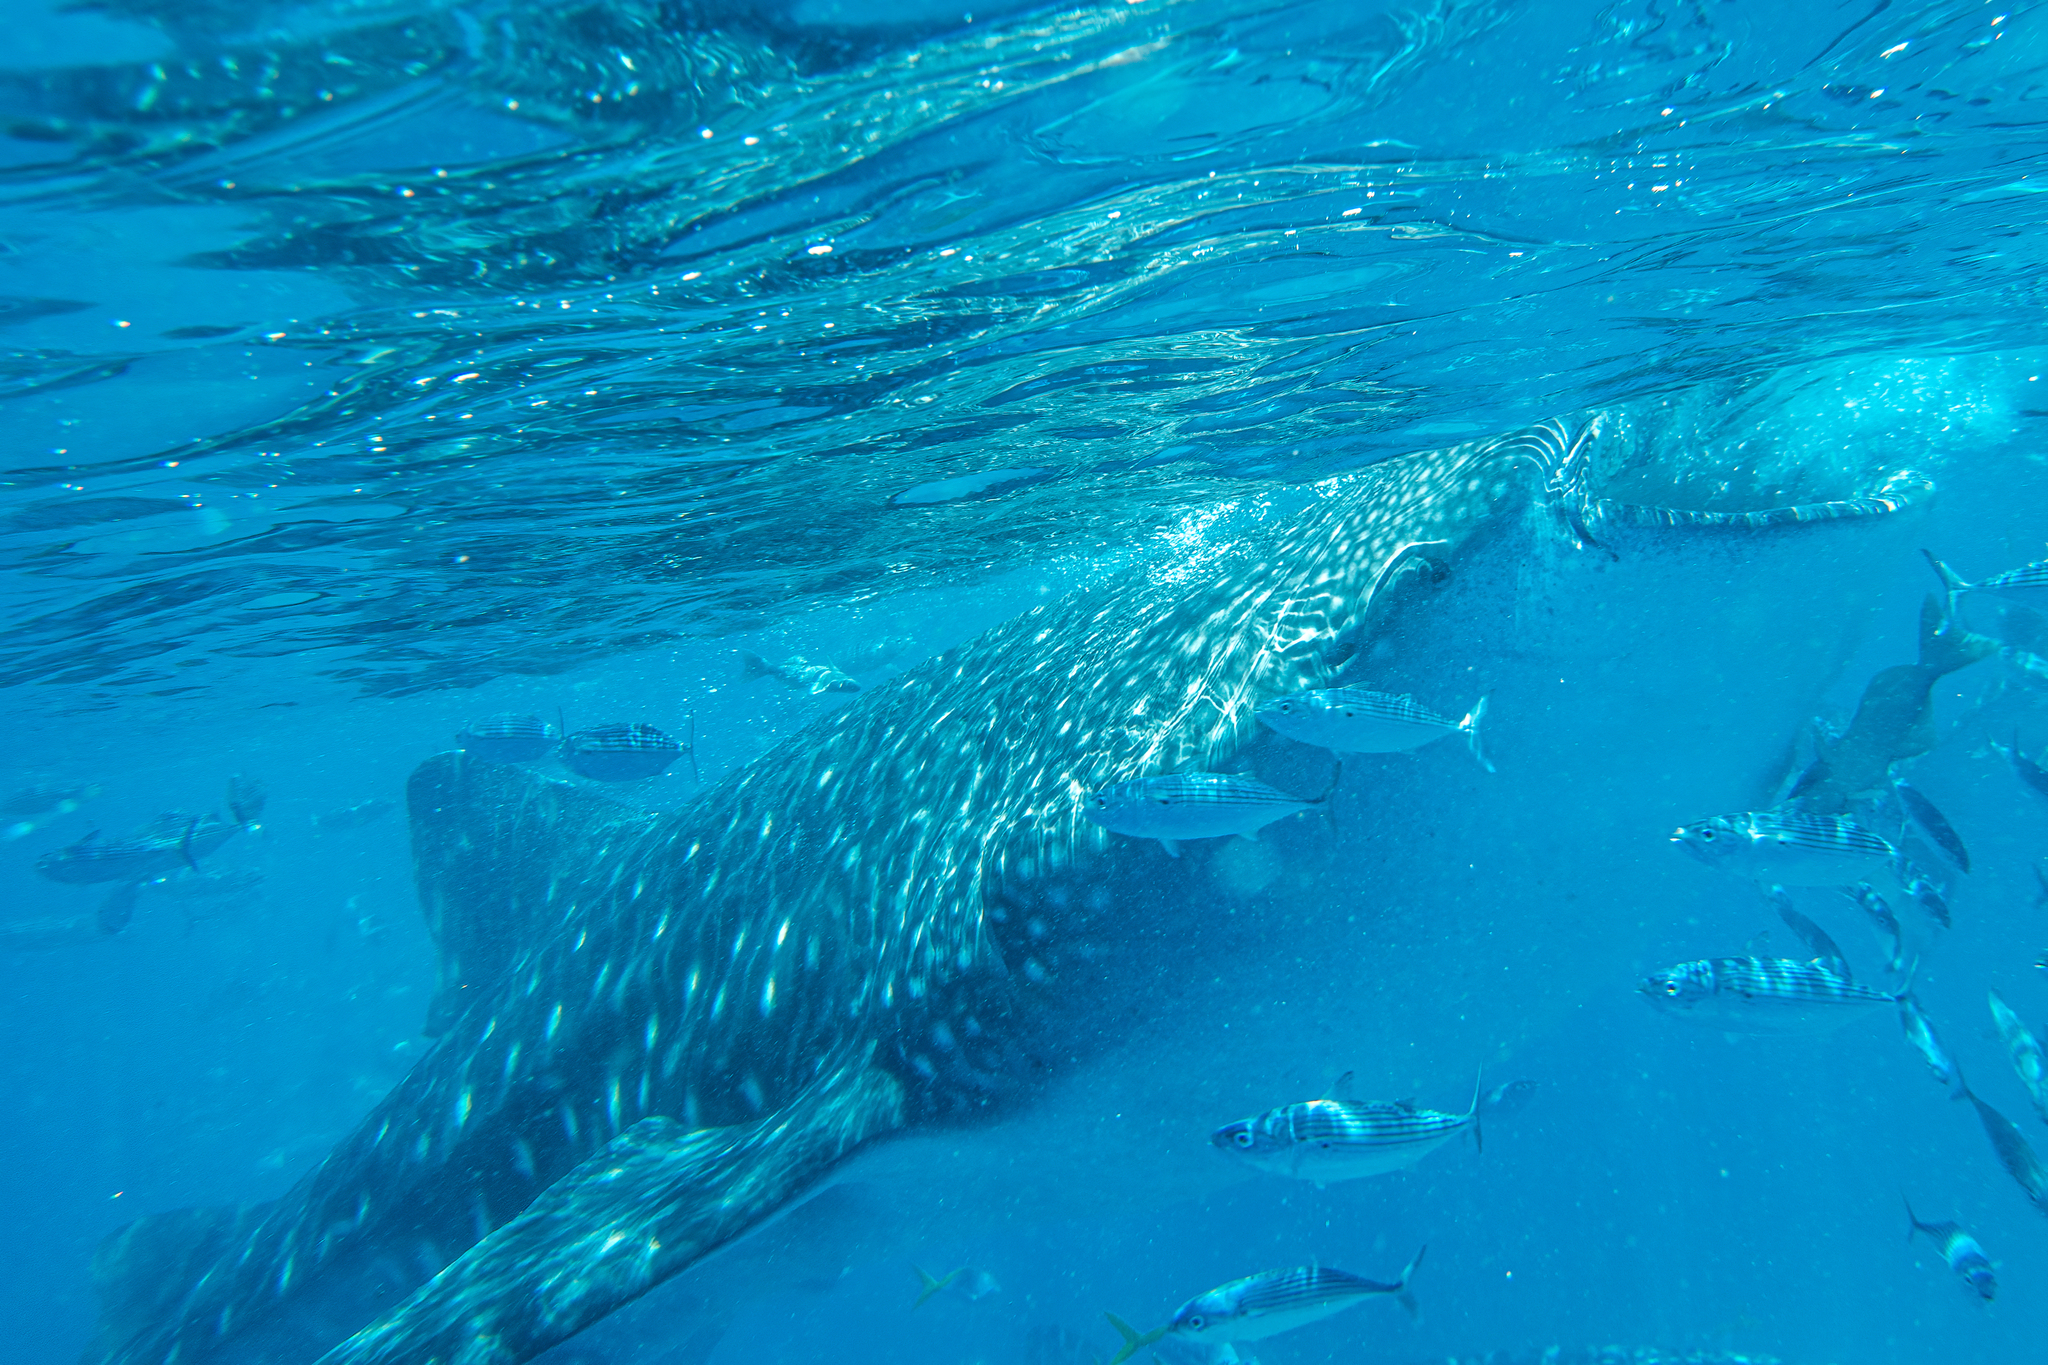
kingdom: Animalia
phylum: Chordata
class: Elasmobranchii
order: Orectolobiformes
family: Rhincodontidae
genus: Rhincodon
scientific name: Rhincodon typus
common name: Whale shark
